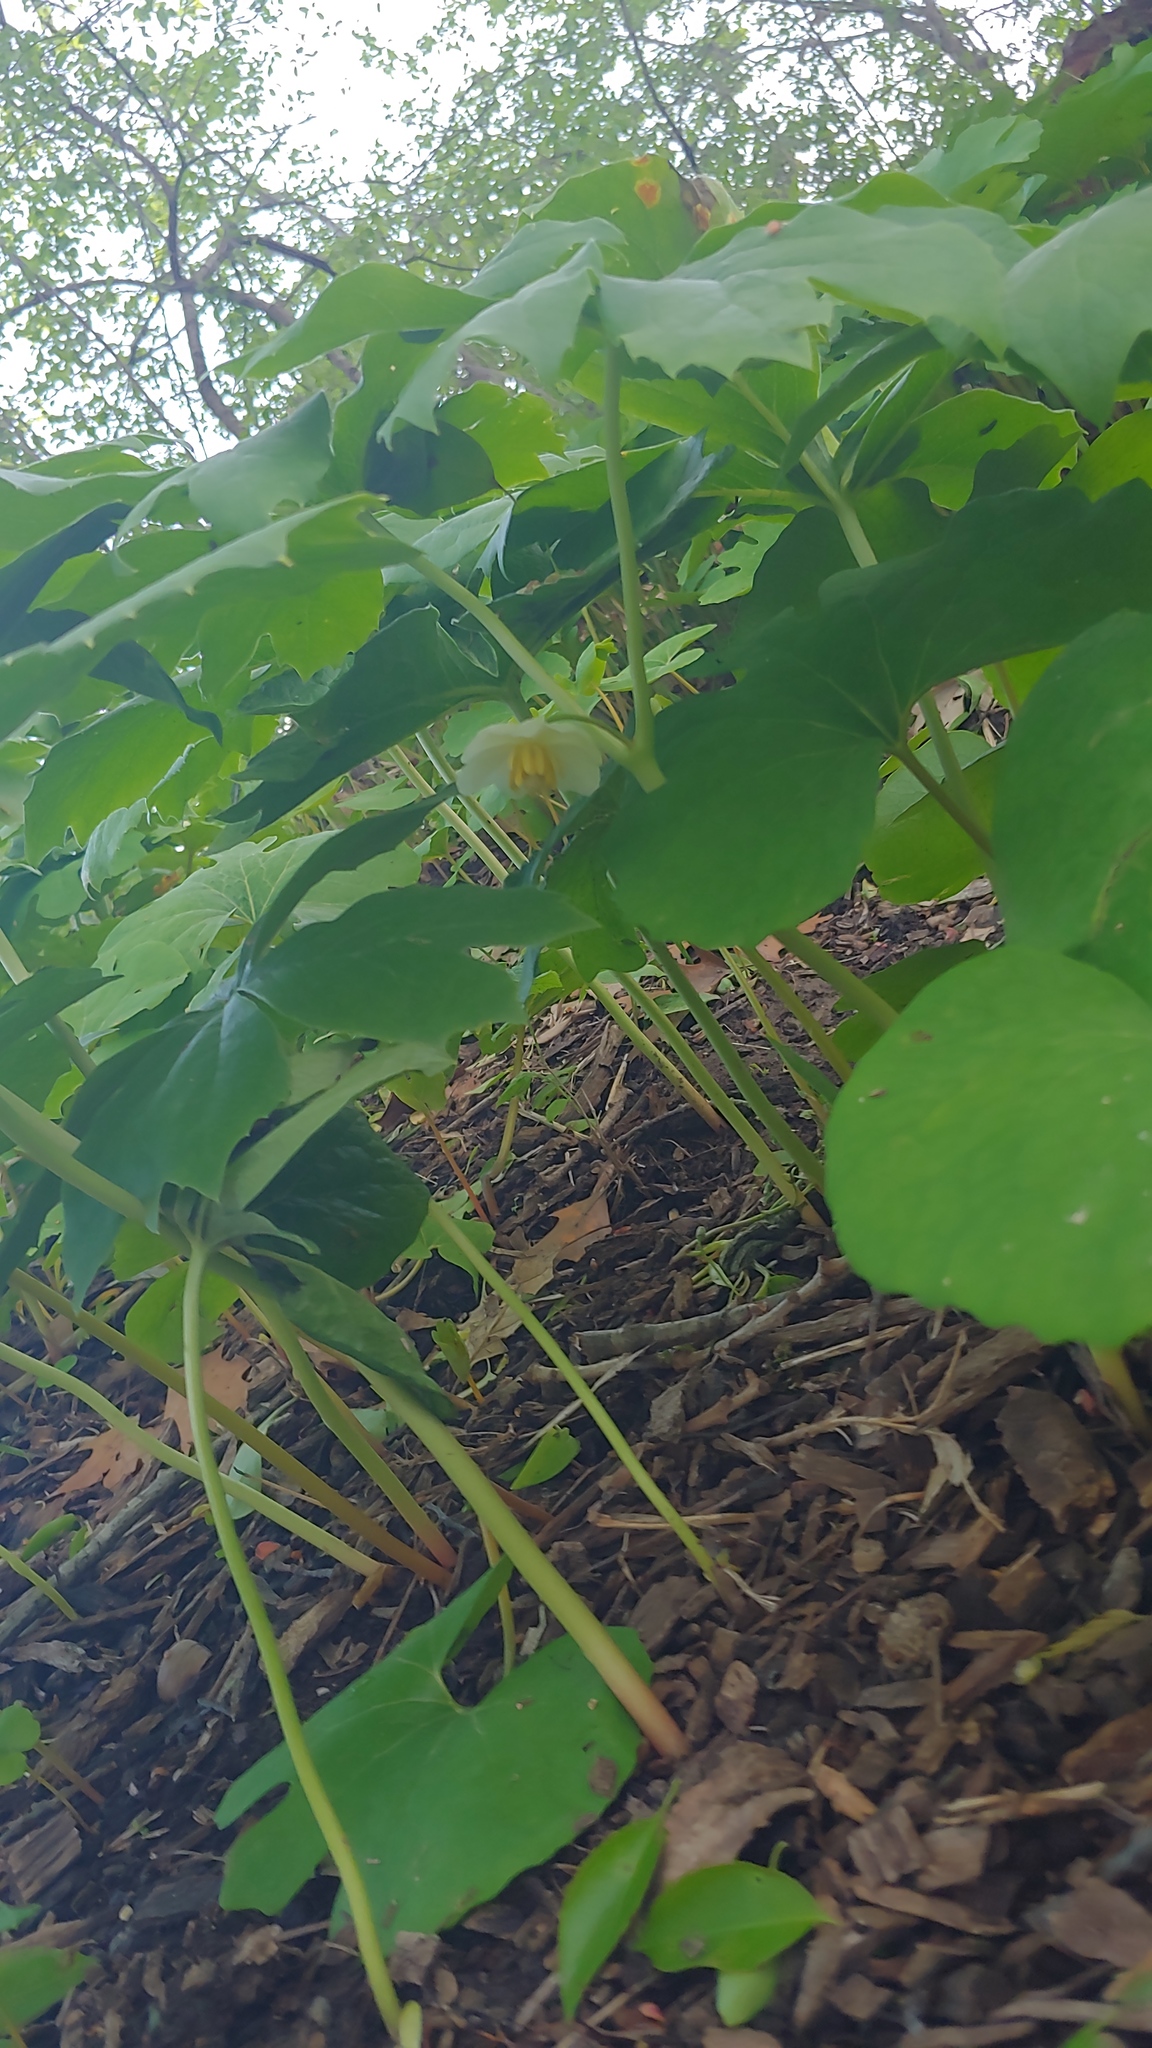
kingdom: Plantae
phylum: Tracheophyta
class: Magnoliopsida
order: Ranunculales
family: Berberidaceae
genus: Podophyllum
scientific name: Podophyllum peltatum
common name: Wild mandrake
